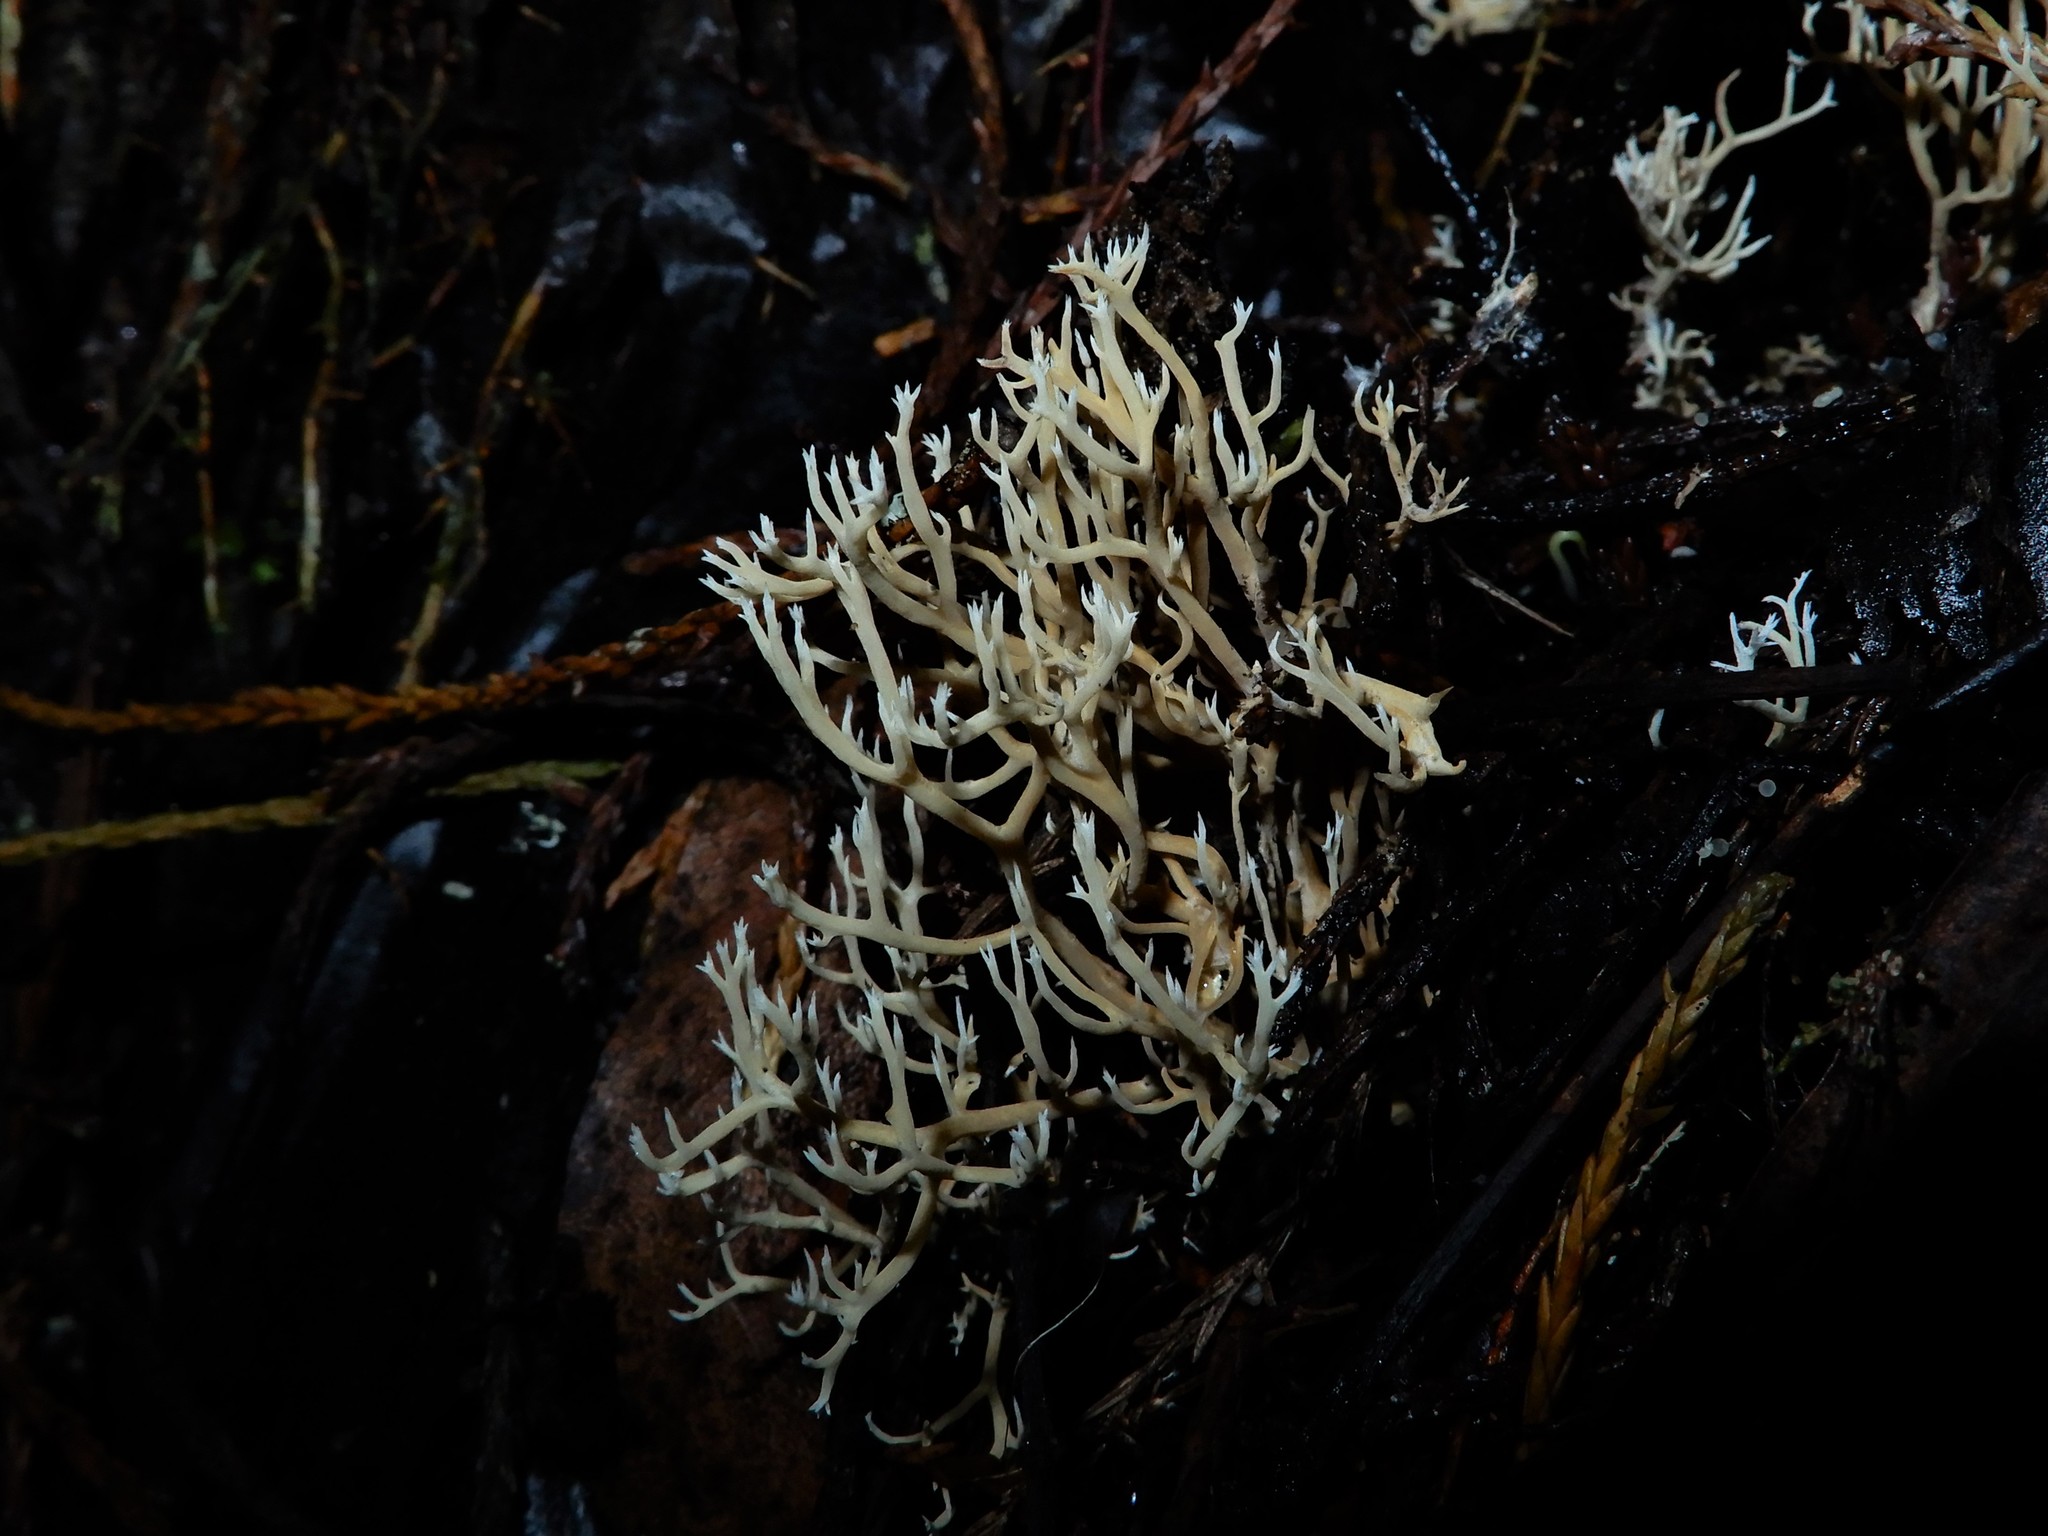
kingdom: Fungi
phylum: Basidiomycota
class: Agaricomycetes
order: Gomphales
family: Gomphaceae
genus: Phaeoclavulina
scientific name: Phaeoclavulina
